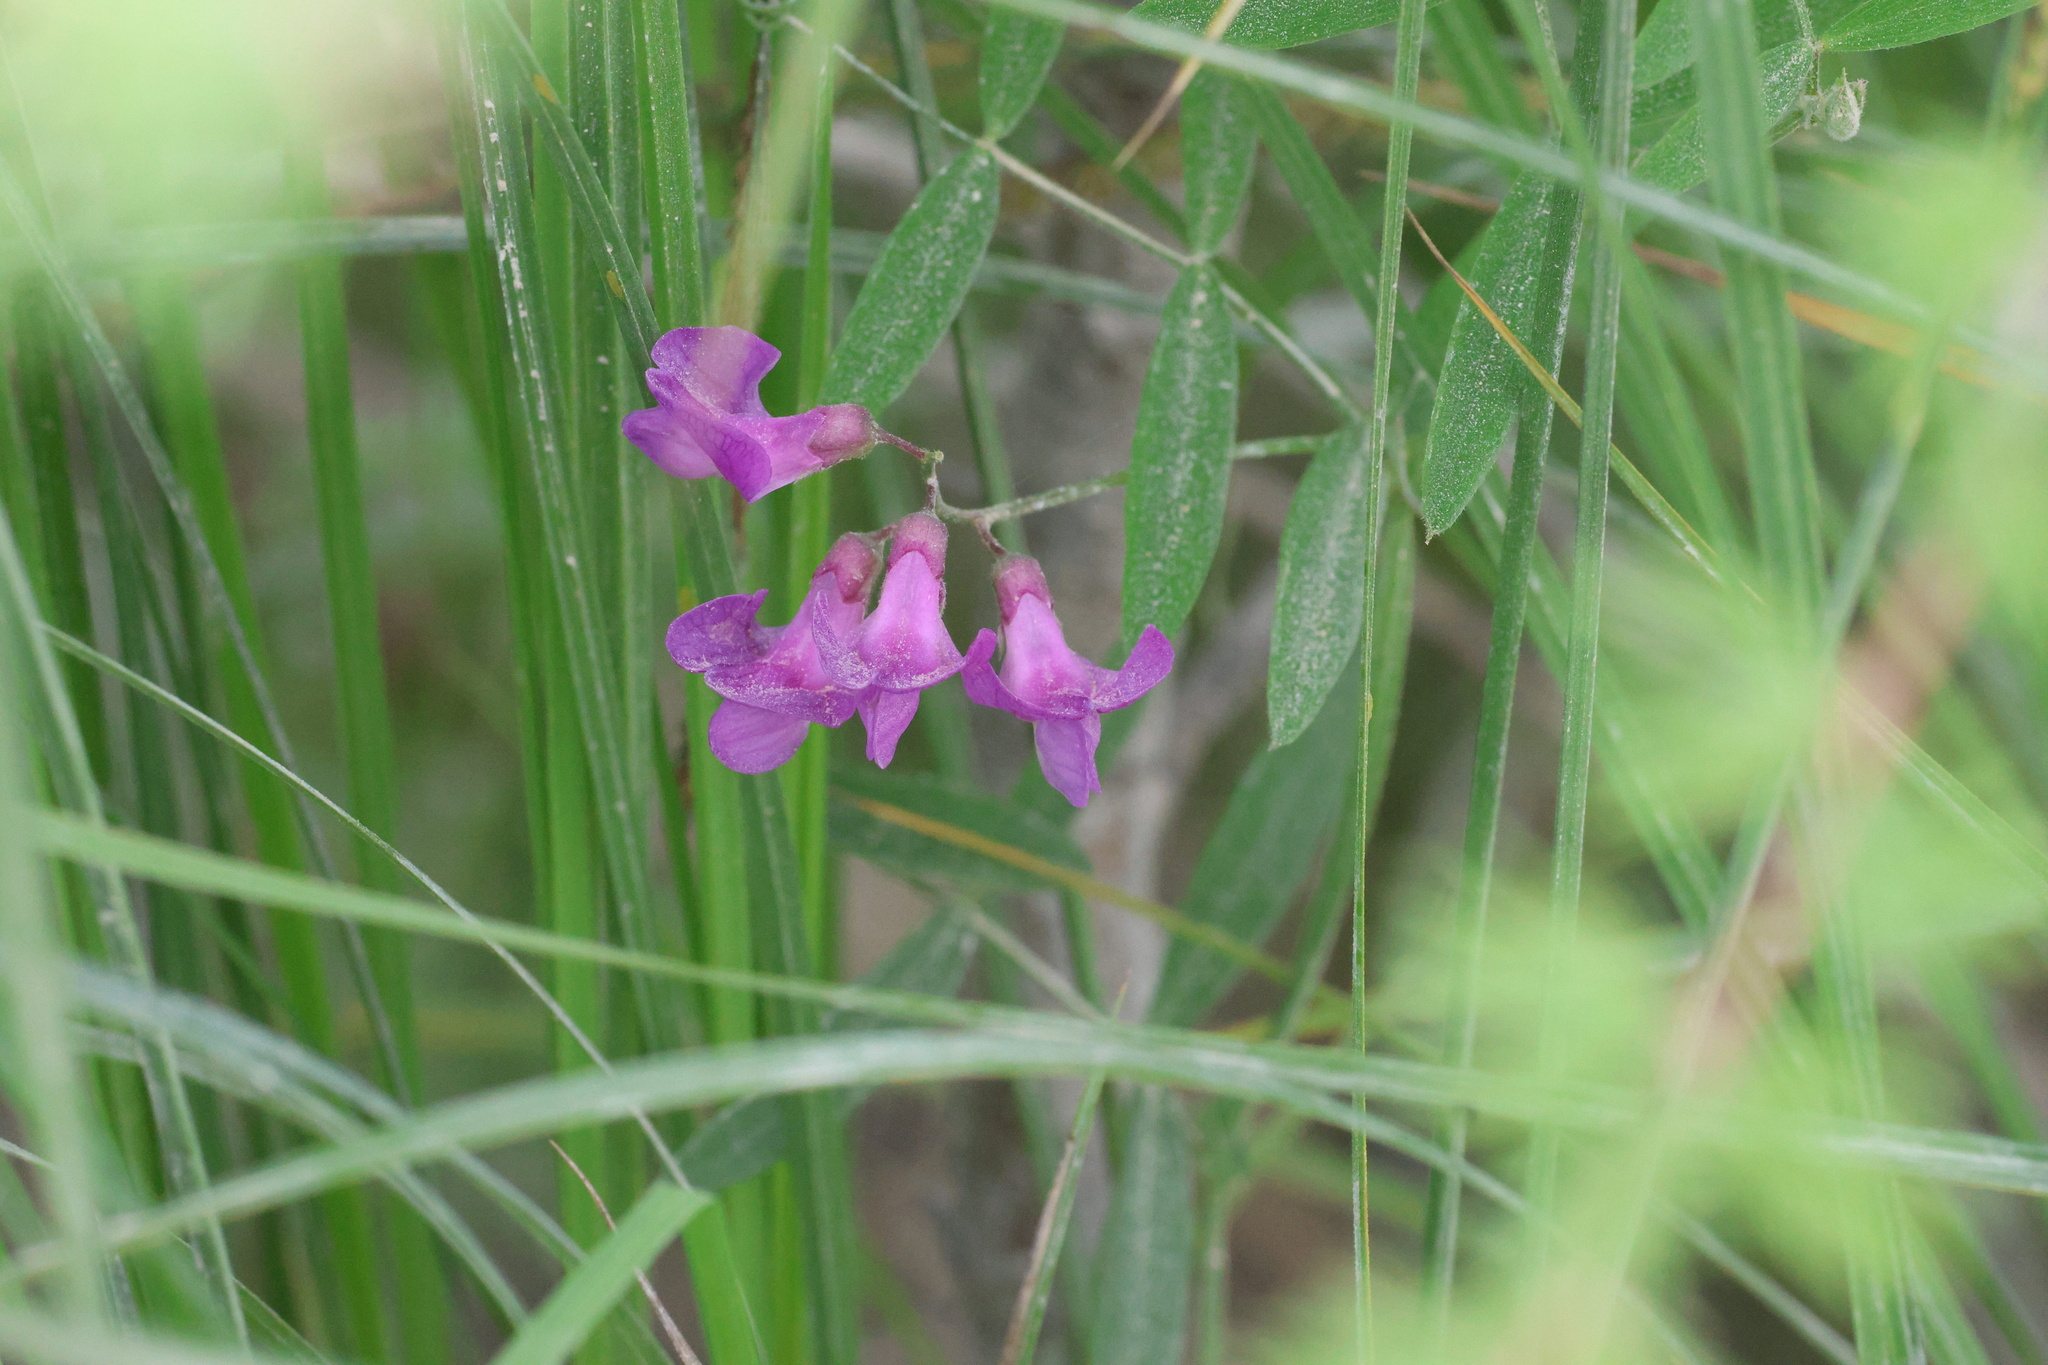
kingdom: Plantae
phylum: Tracheophyta
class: Magnoliopsida
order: Fabales
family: Fabaceae
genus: Lathyrus
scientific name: Lathyrus palustris
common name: Marsh pea
